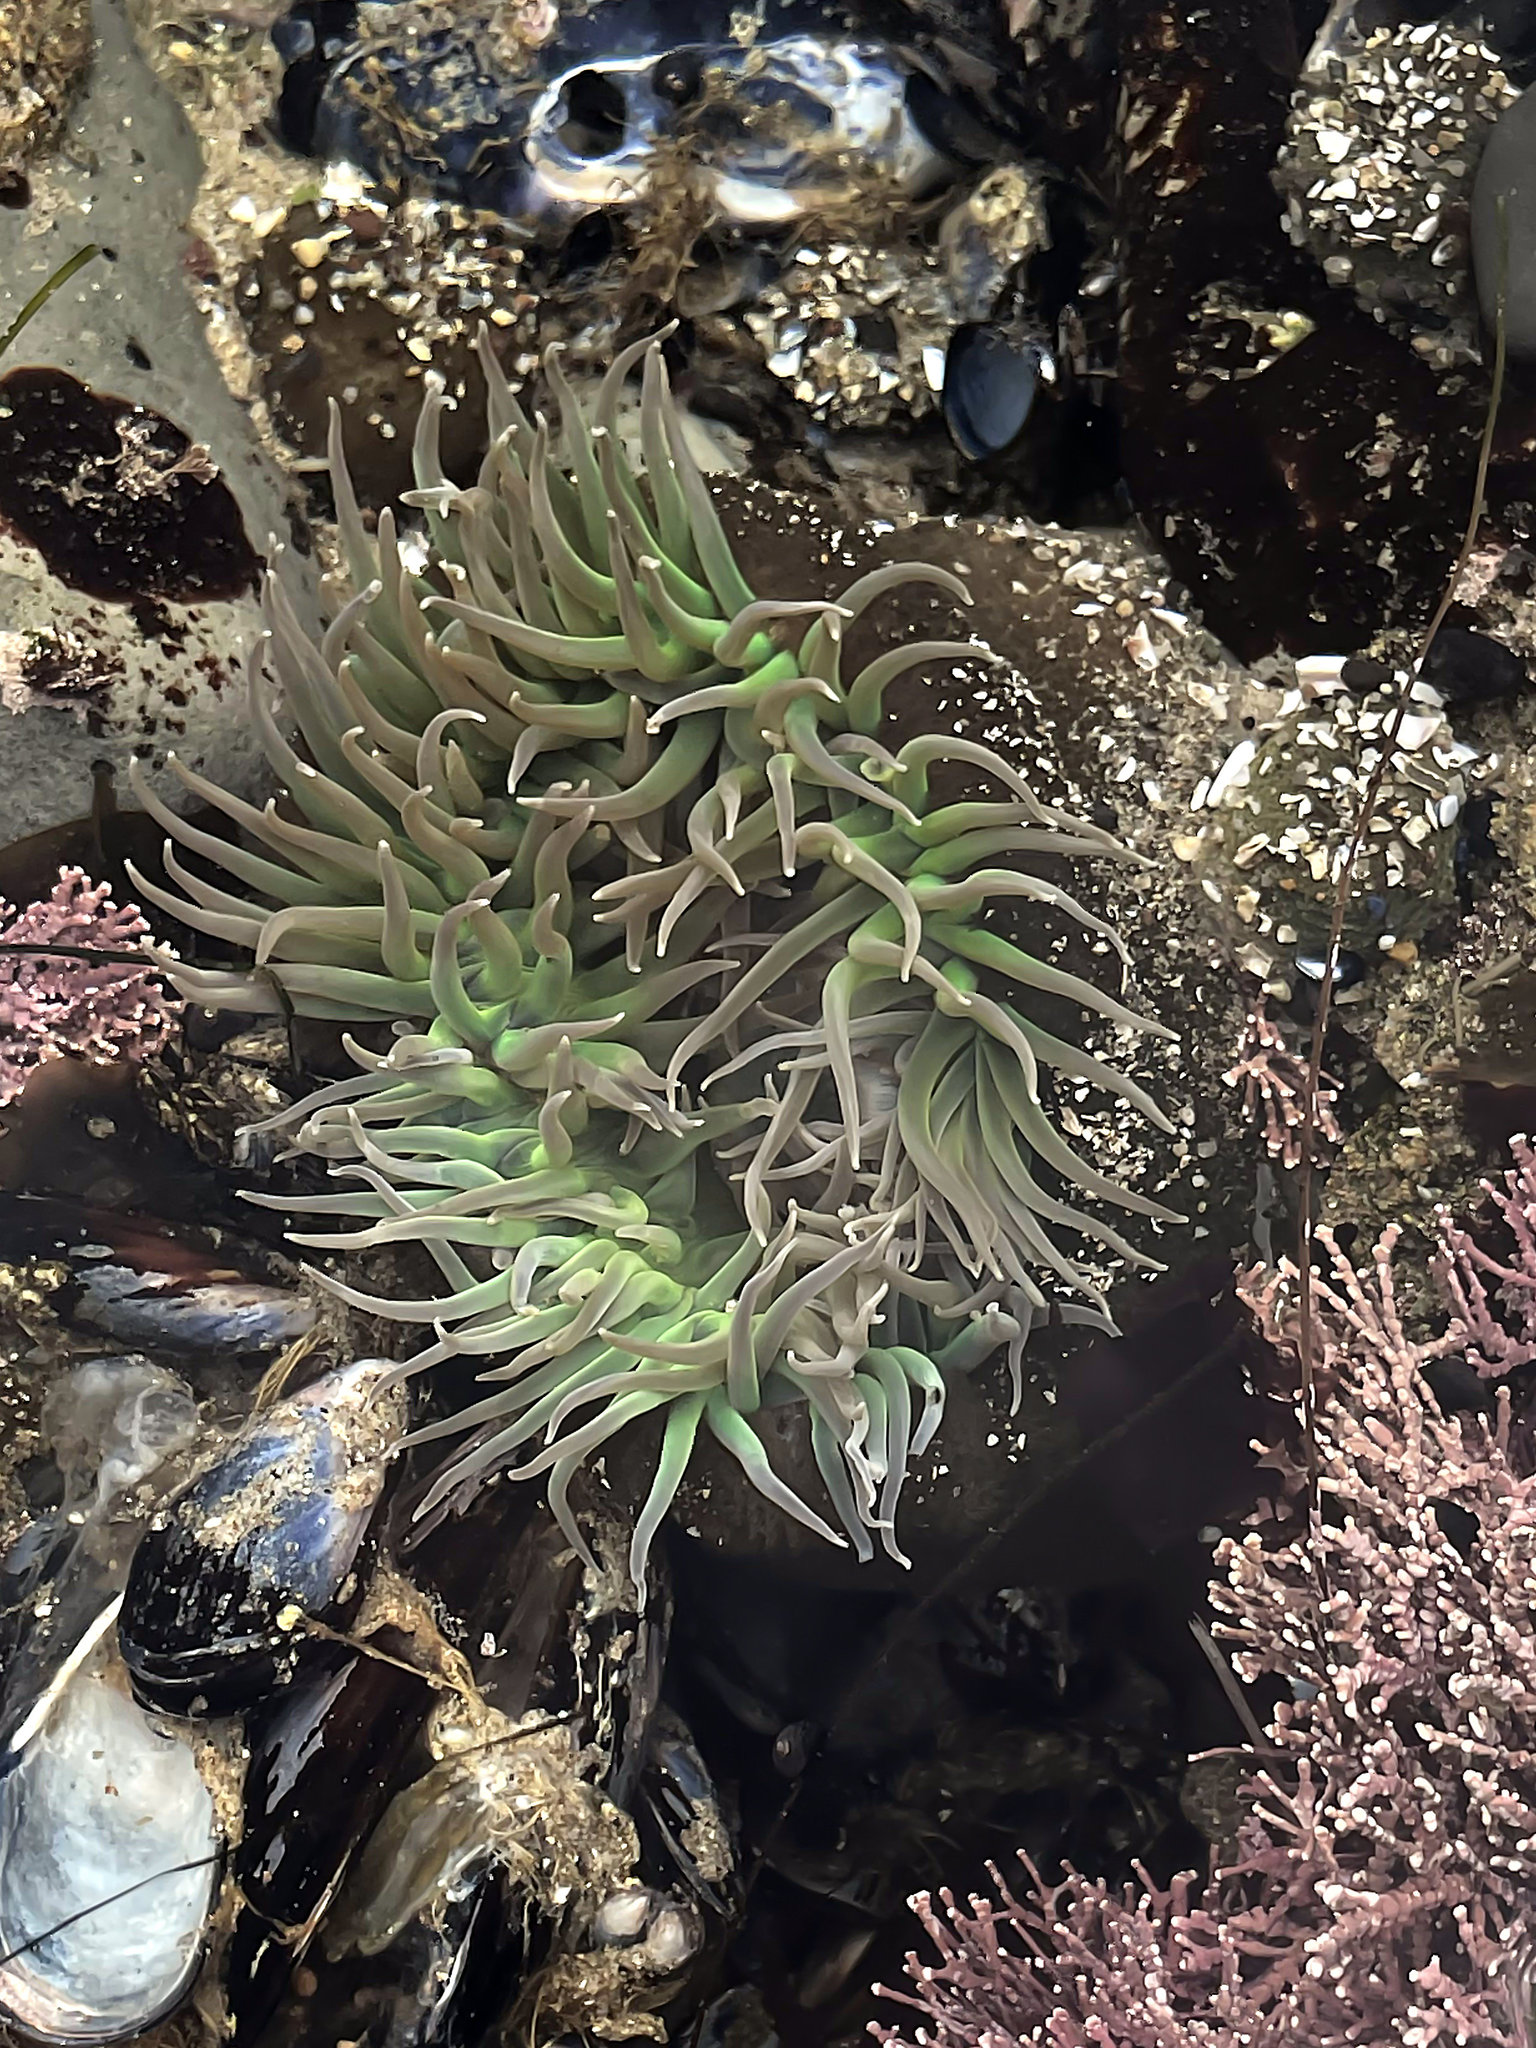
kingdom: Animalia
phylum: Cnidaria
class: Anthozoa
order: Actiniaria
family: Actiniidae
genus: Anthopleura
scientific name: Anthopleura xanthogrammica
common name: Giant green anemone
